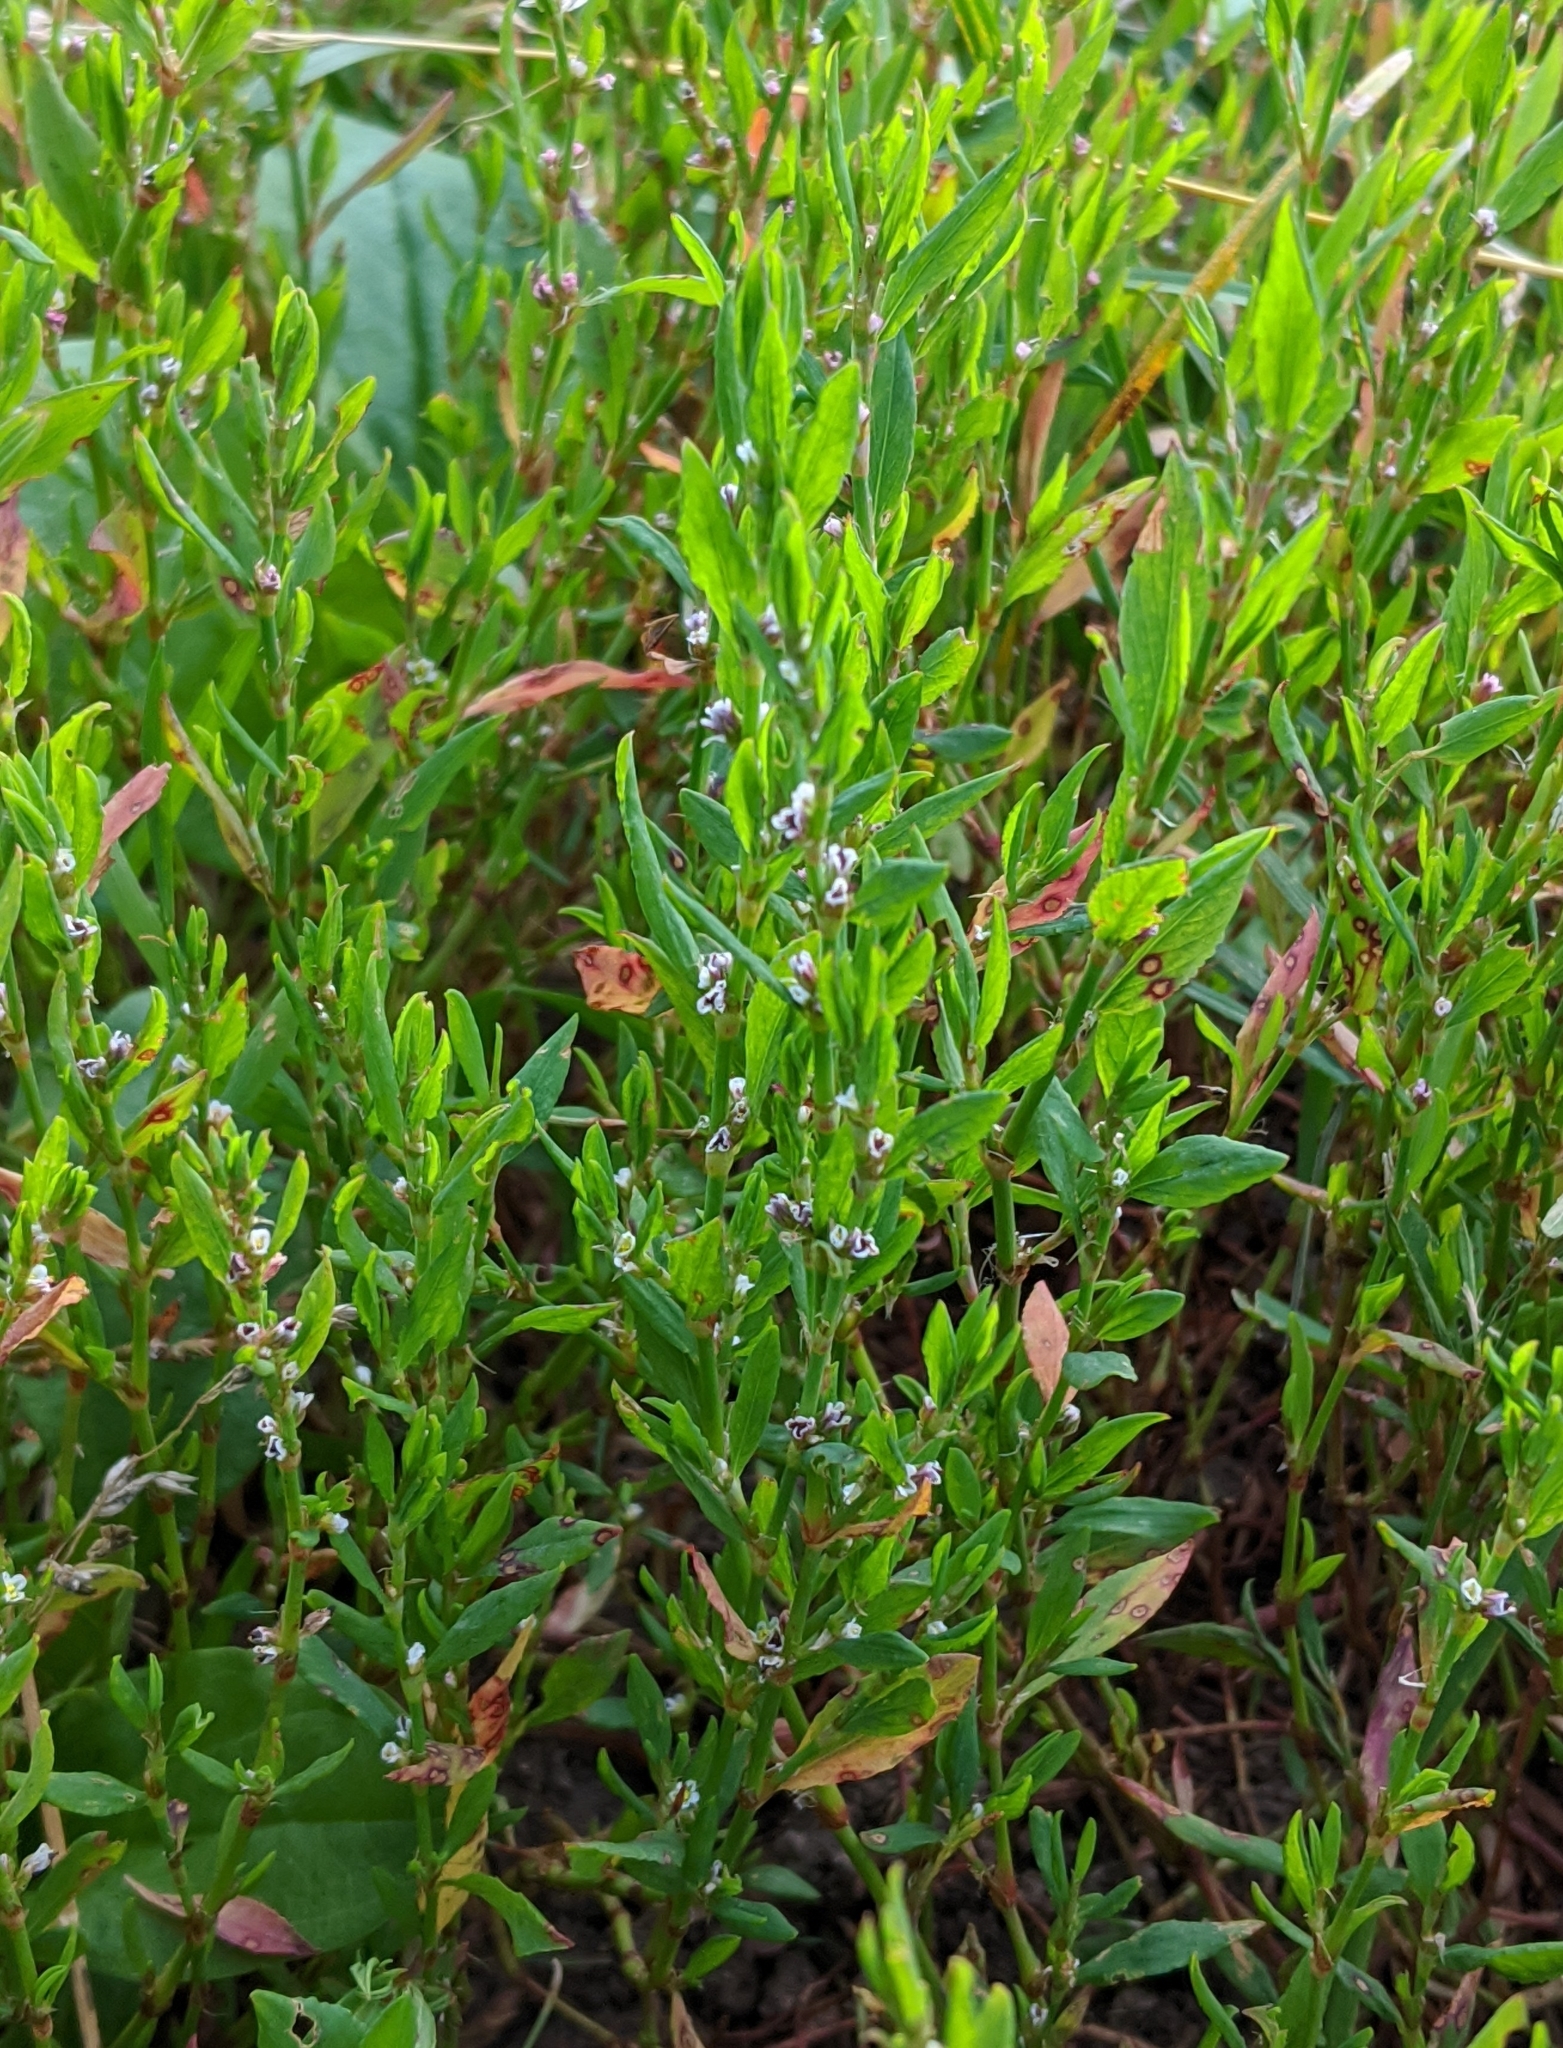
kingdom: Plantae
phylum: Tracheophyta
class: Magnoliopsida
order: Caryophyllales
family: Polygonaceae
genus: Polygonum
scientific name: Polygonum
